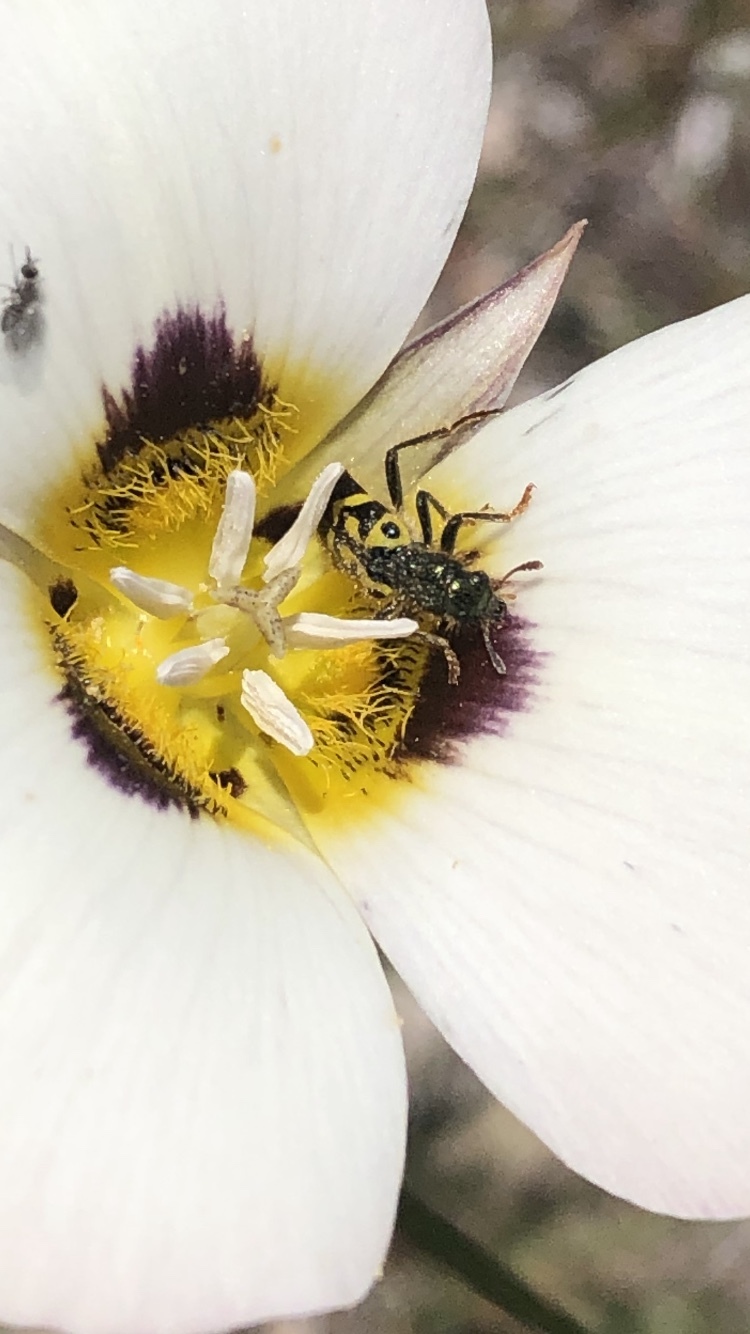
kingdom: Animalia
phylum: Arthropoda
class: Insecta
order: Coleoptera
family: Cleridae
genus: Trichodes
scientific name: Trichodes ornatus
